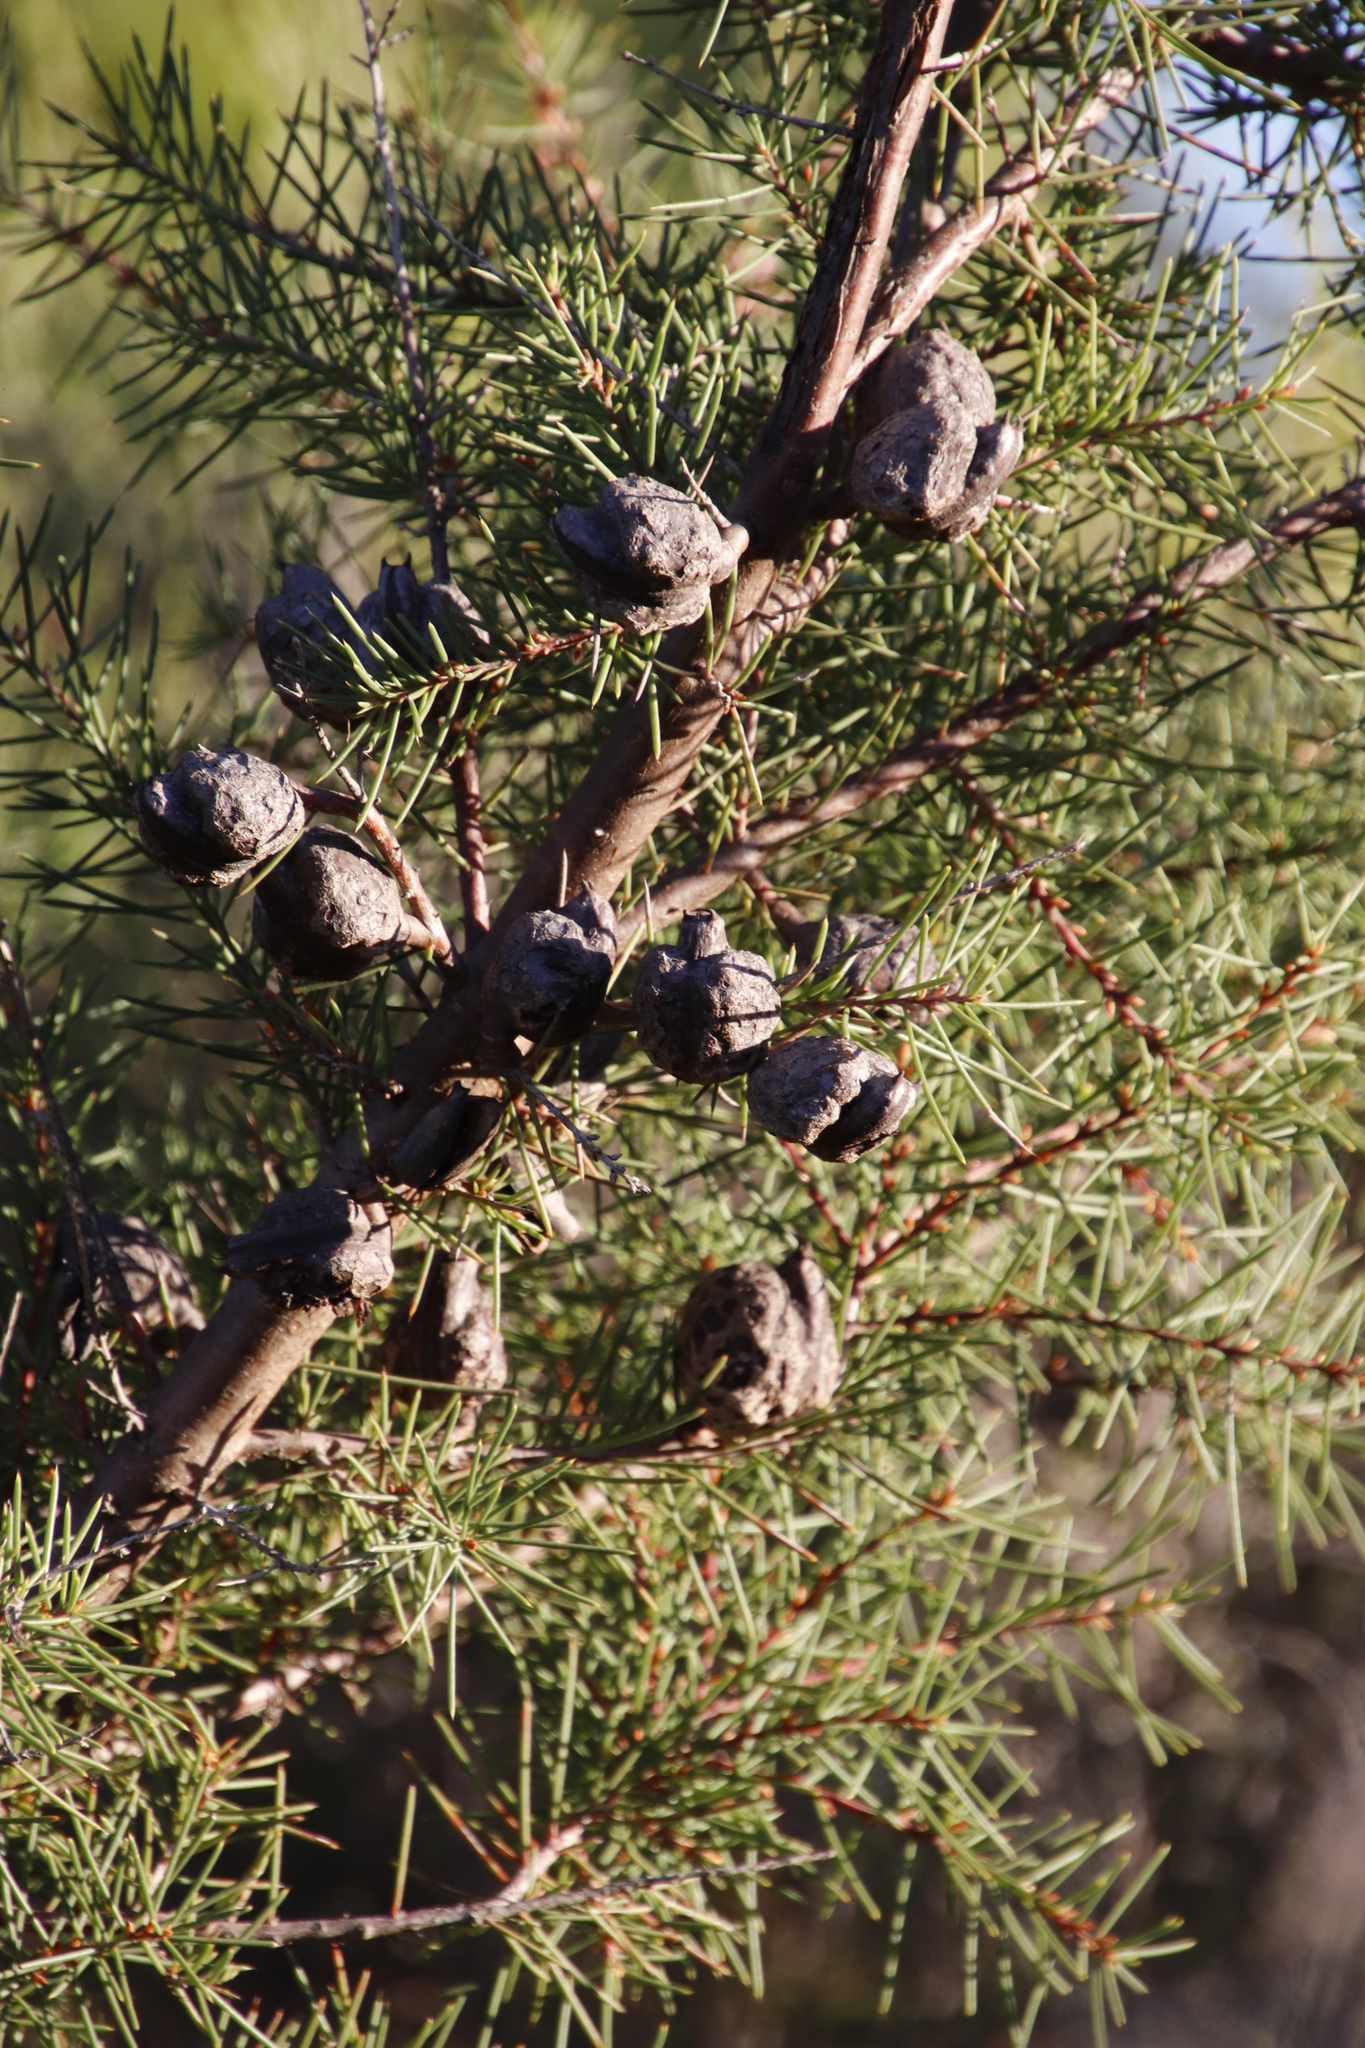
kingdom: Plantae
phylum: Tracheophyta
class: Magnoliopsida
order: Proteales
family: Proteaceae
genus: Hakea
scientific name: Hakea sericea
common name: Needle bush
